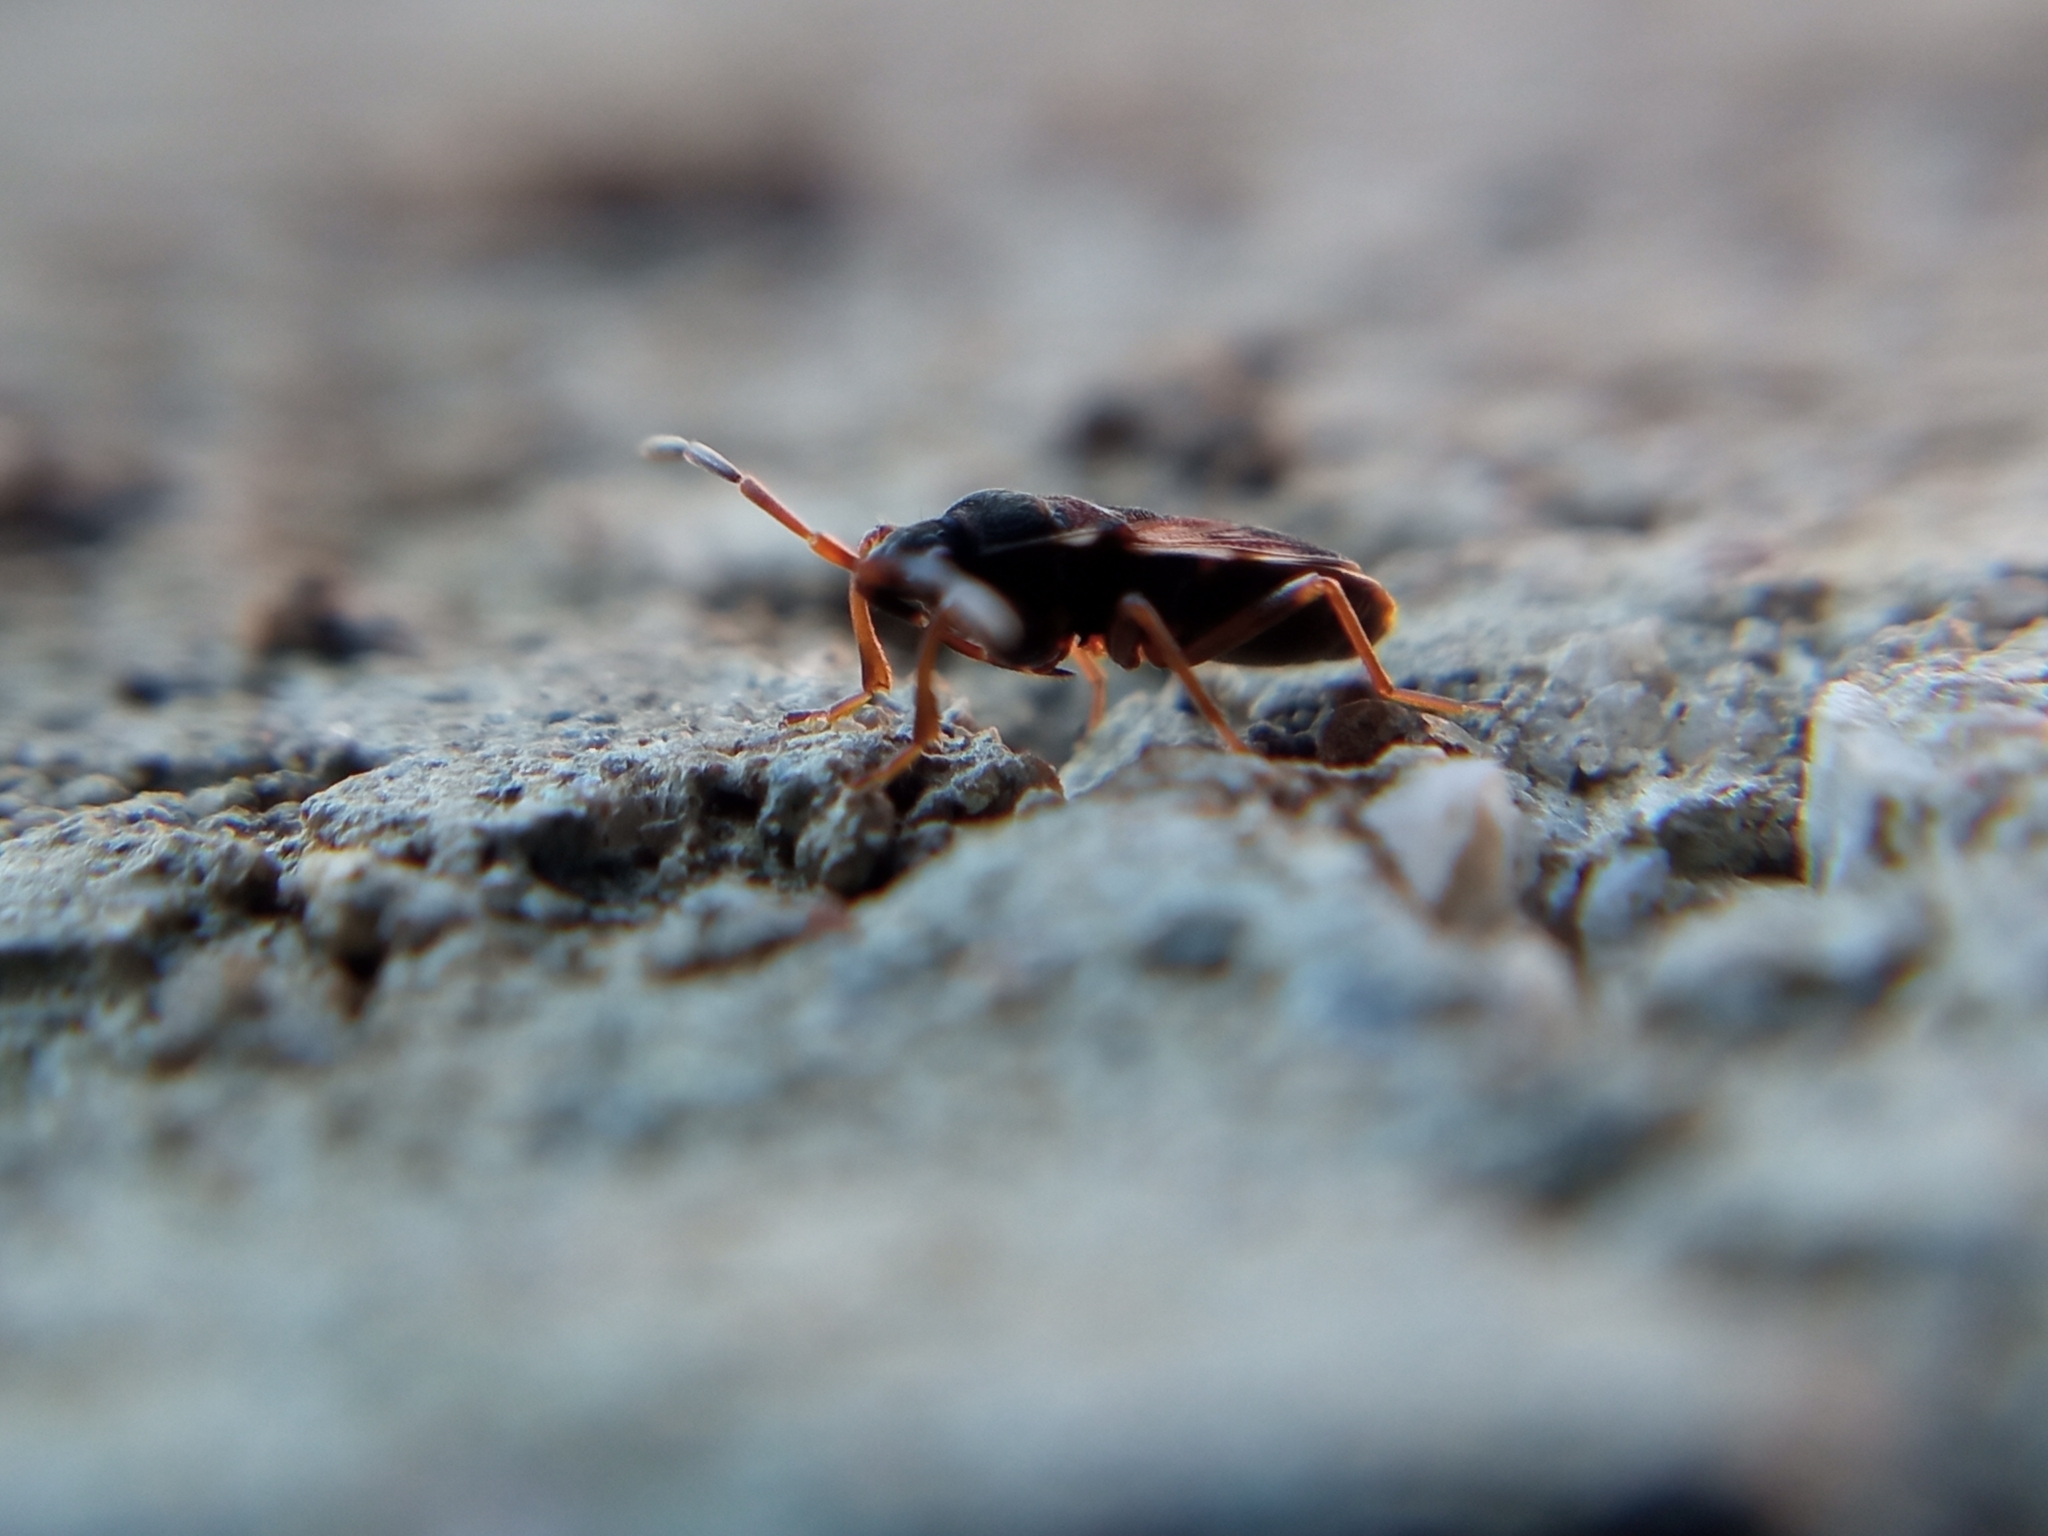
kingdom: Animalia
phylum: Arthropoda
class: Insecta
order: Hemiptera
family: Rhyparochromidae
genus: Scolopostethus
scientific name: Scolopostethus grandis
